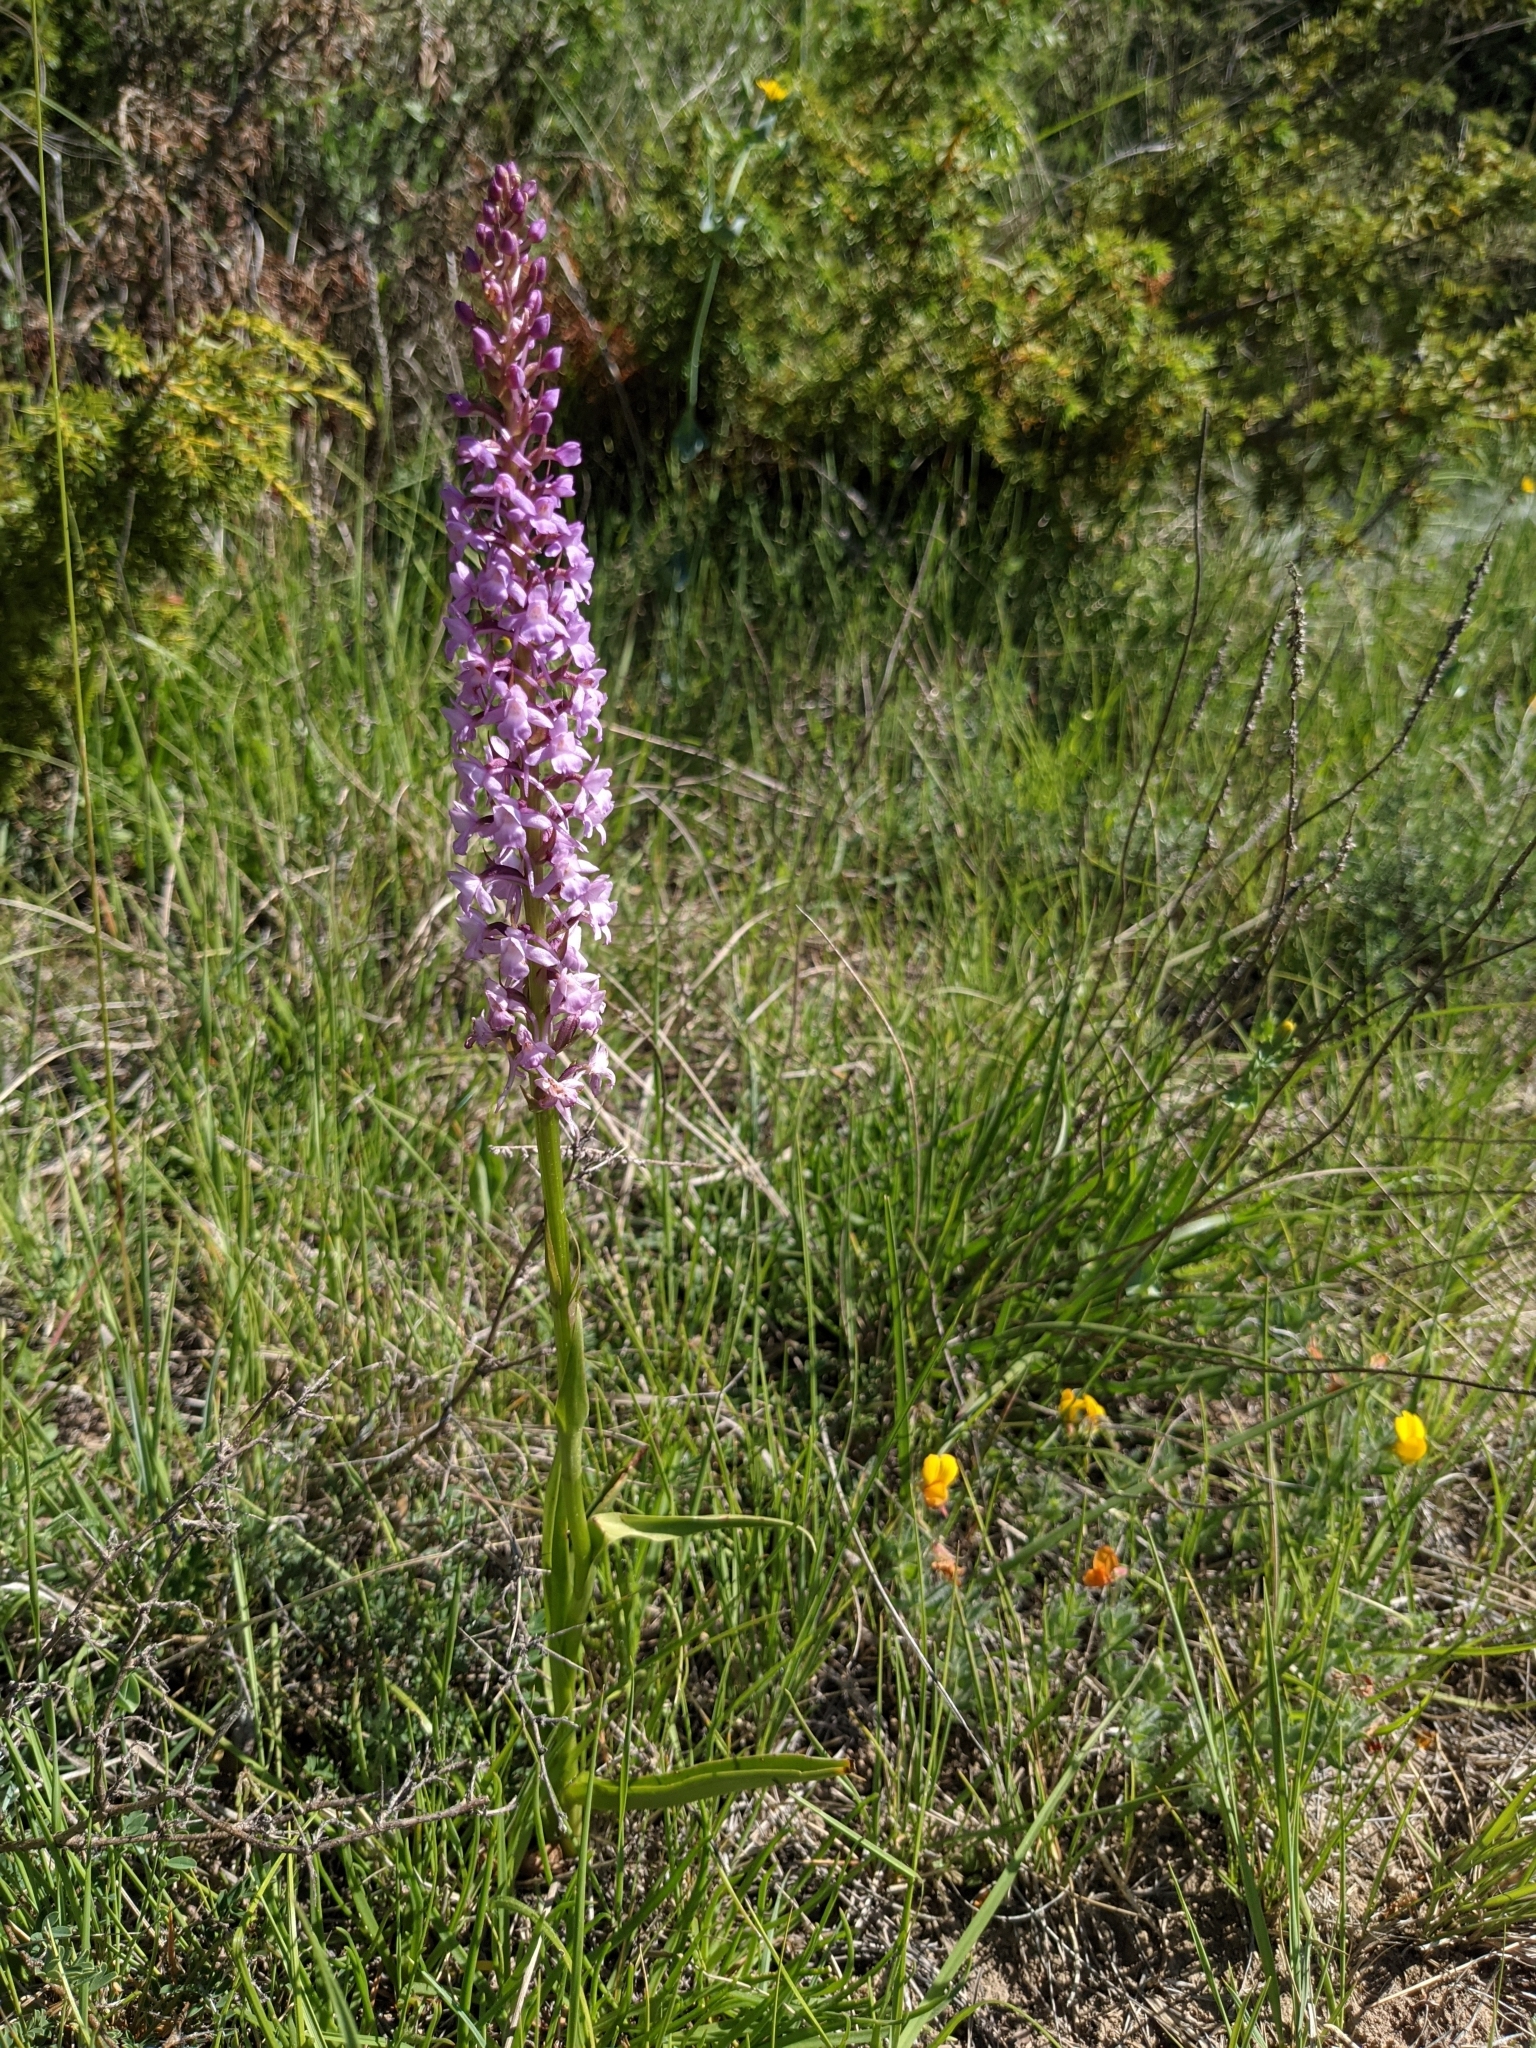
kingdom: Plantae
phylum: Tracheophyta
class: Liliopsida
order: Asparagales
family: Orchidaceae
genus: Gymnadenia
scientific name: Gymnadenia conopsea
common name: Fragrant orchid
